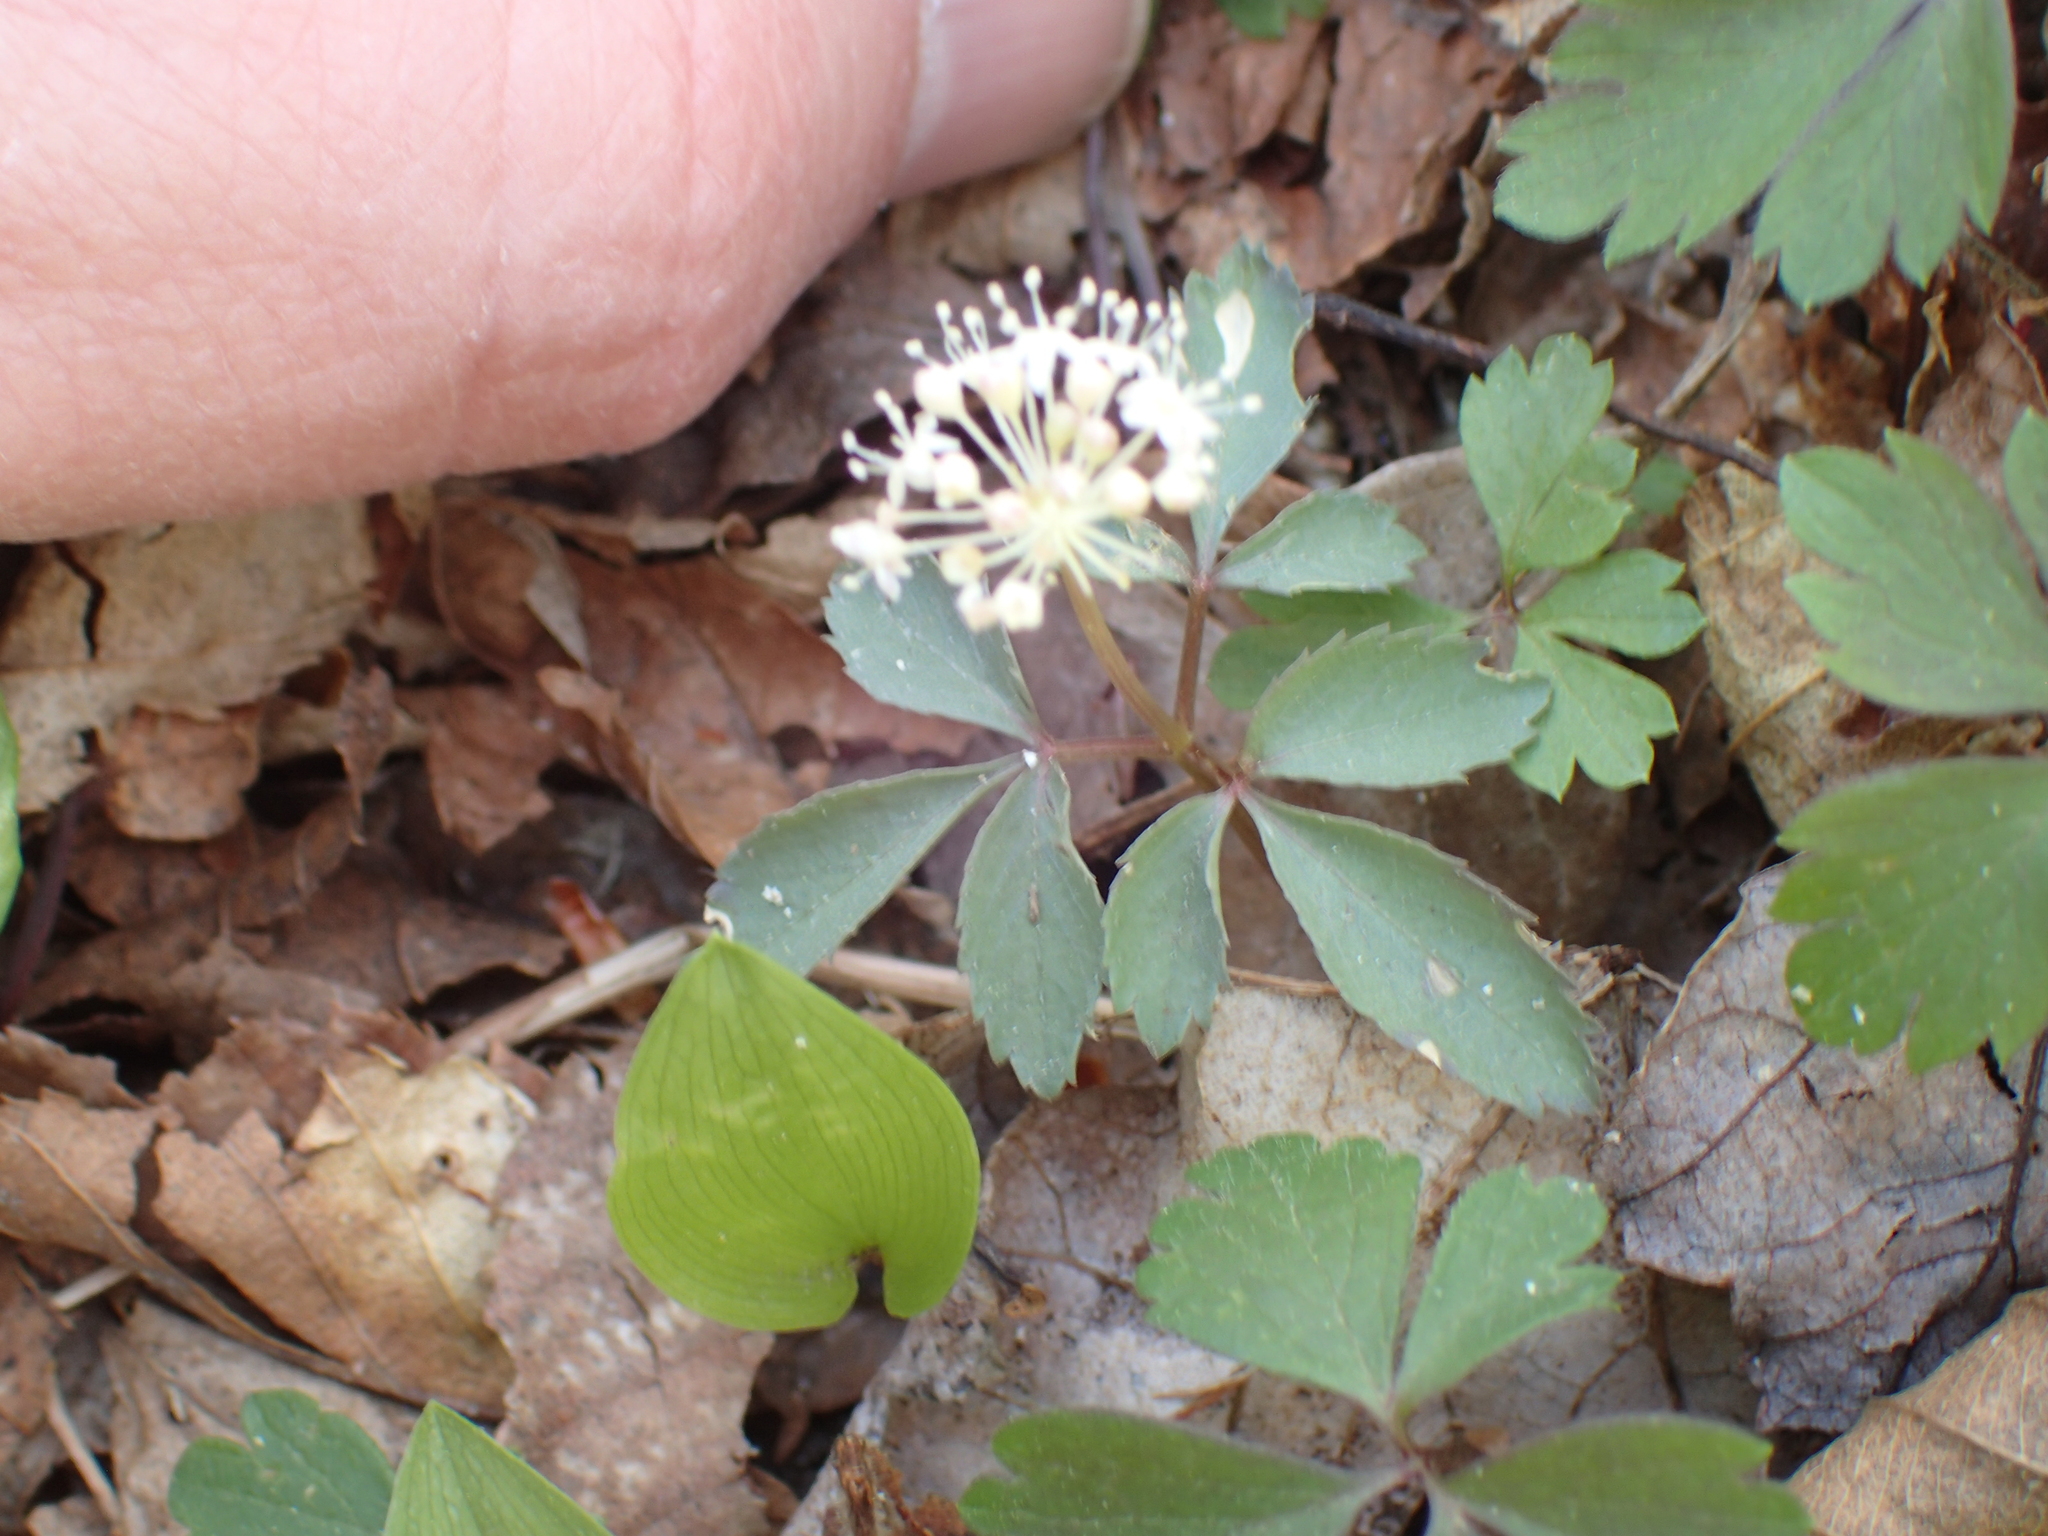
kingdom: Plantae
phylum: Tracheophyta
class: Magnoliopsida
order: Apiales
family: Araliaceae
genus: Panax
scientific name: Panax trifolius
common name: Dwarf ginseng
